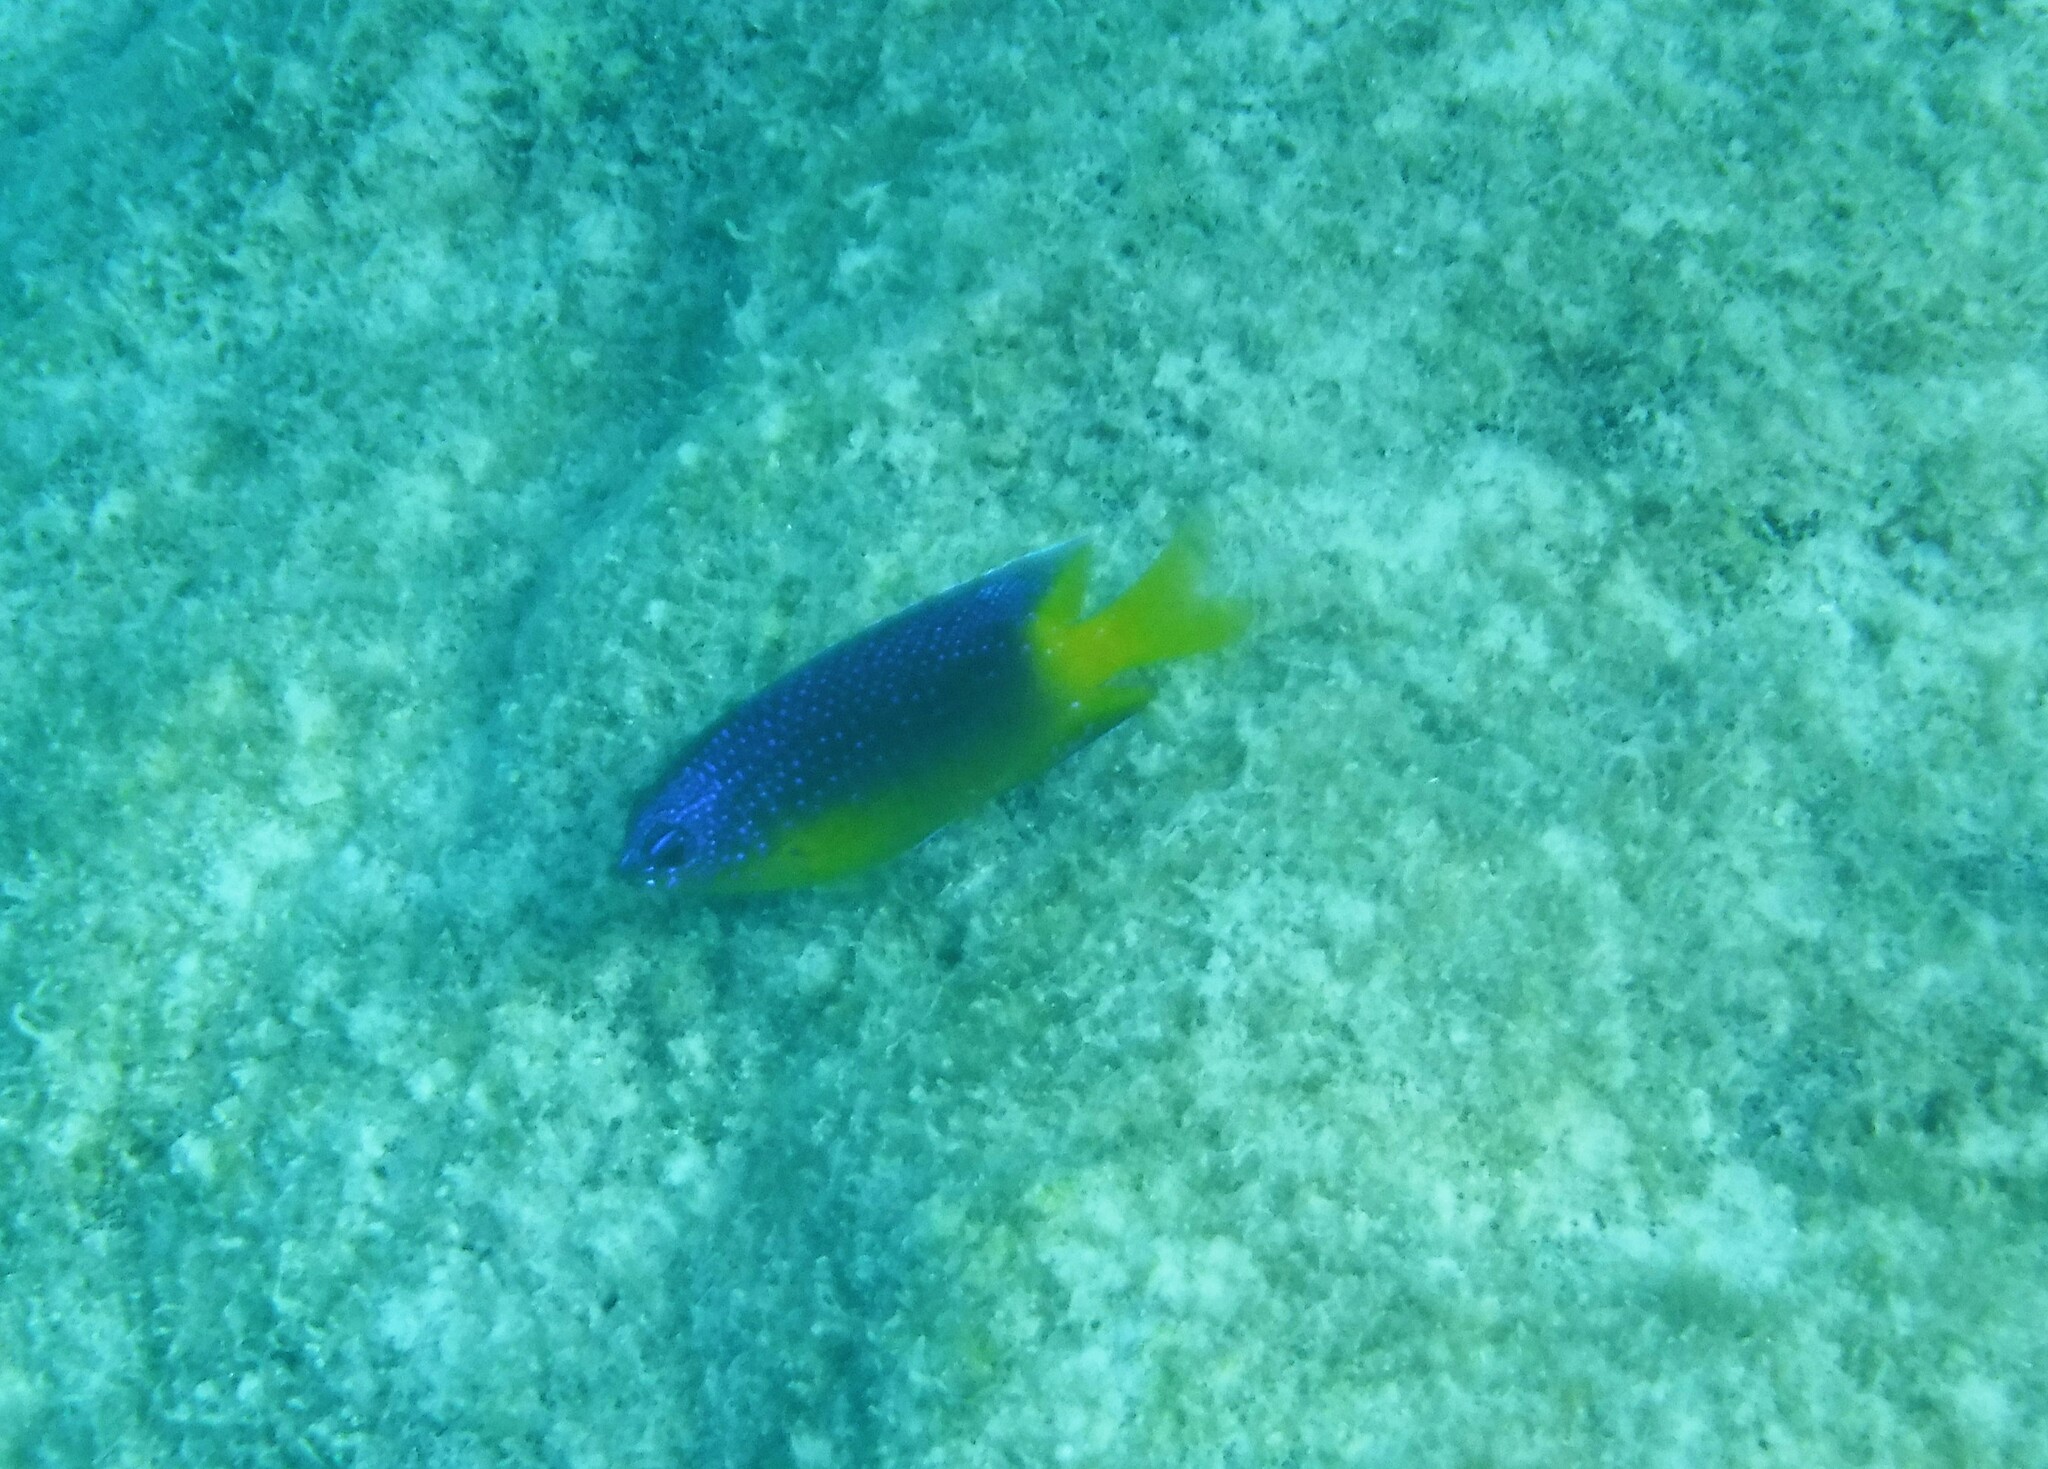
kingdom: Animalia
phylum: Chordata
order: Perciformes
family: Pomacentridae
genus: Stegastes
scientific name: Stegastes leucostictus
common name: Beaugregory
